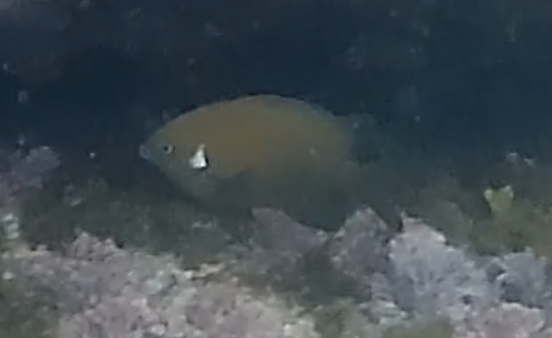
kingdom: Animalia
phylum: Chordata
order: Perciformes
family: Pomacentridae
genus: Parma
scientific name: Parma microlepis
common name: White-ear
